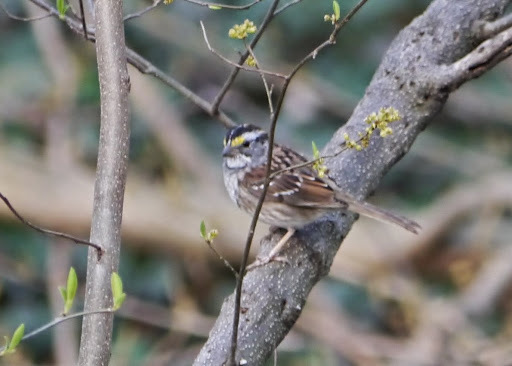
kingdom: Animalia
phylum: Chordata
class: Aves
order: Passeriformes
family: Passerellidae
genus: Zonotrichia
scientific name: Zonotrichia albicollis
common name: White-throated sparrow
